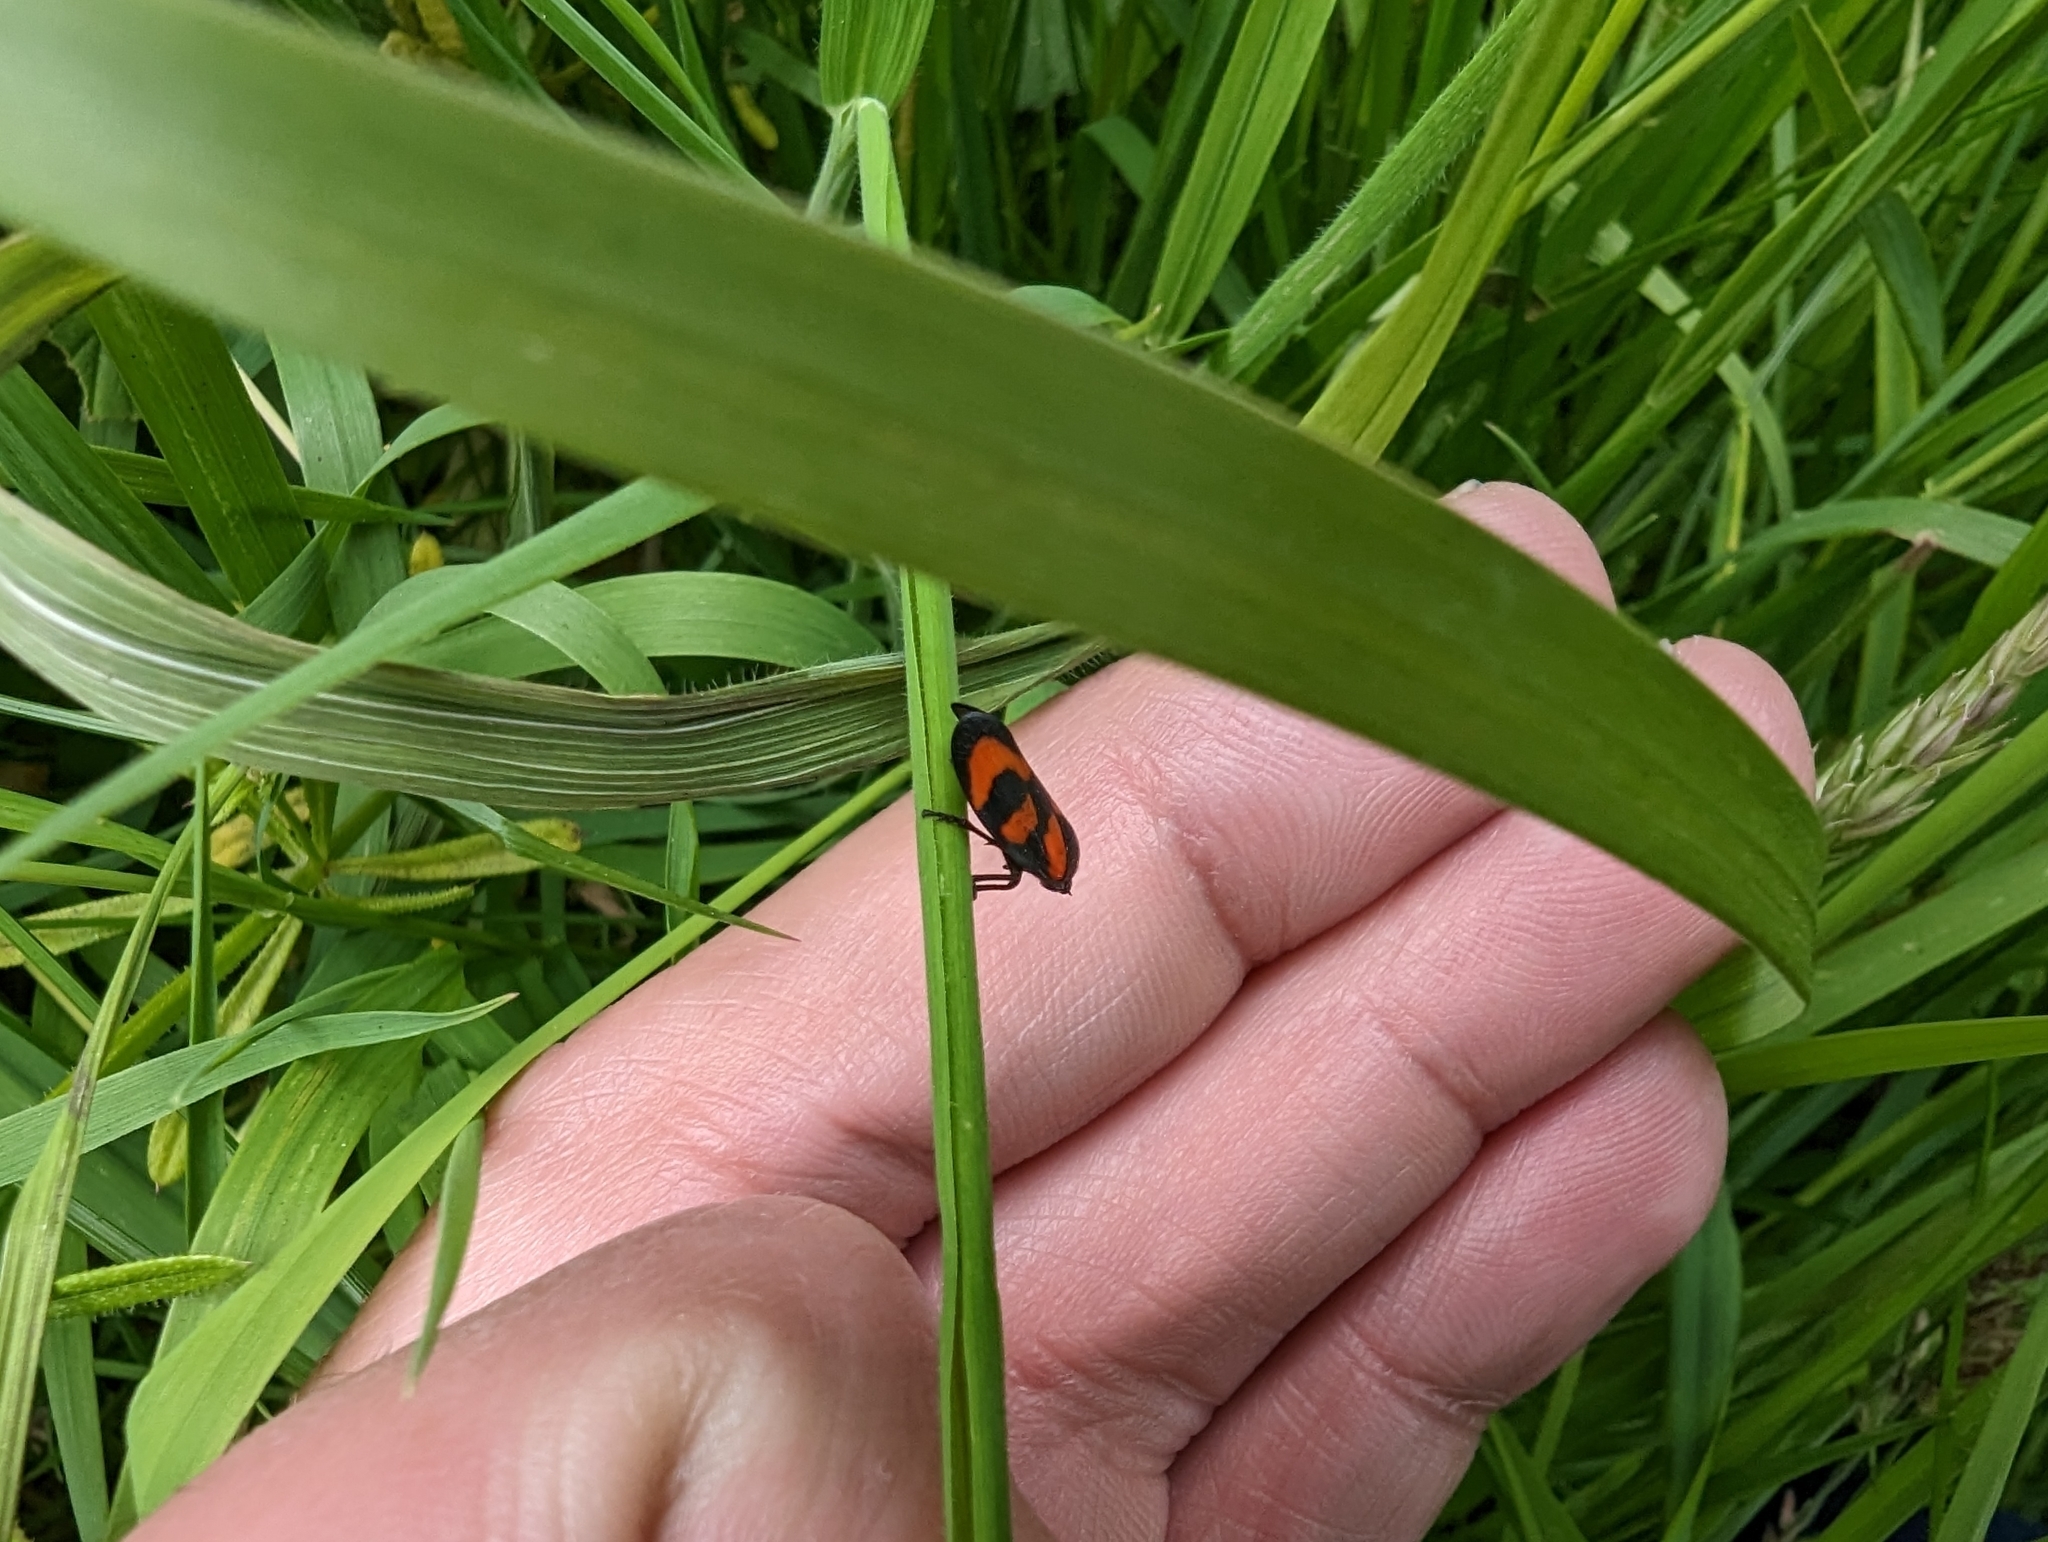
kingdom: Animalia
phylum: Arthropoda
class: Insecta
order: Hemiptera
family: Cercopidae
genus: Cercopis
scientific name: Cercopis vulnerata
